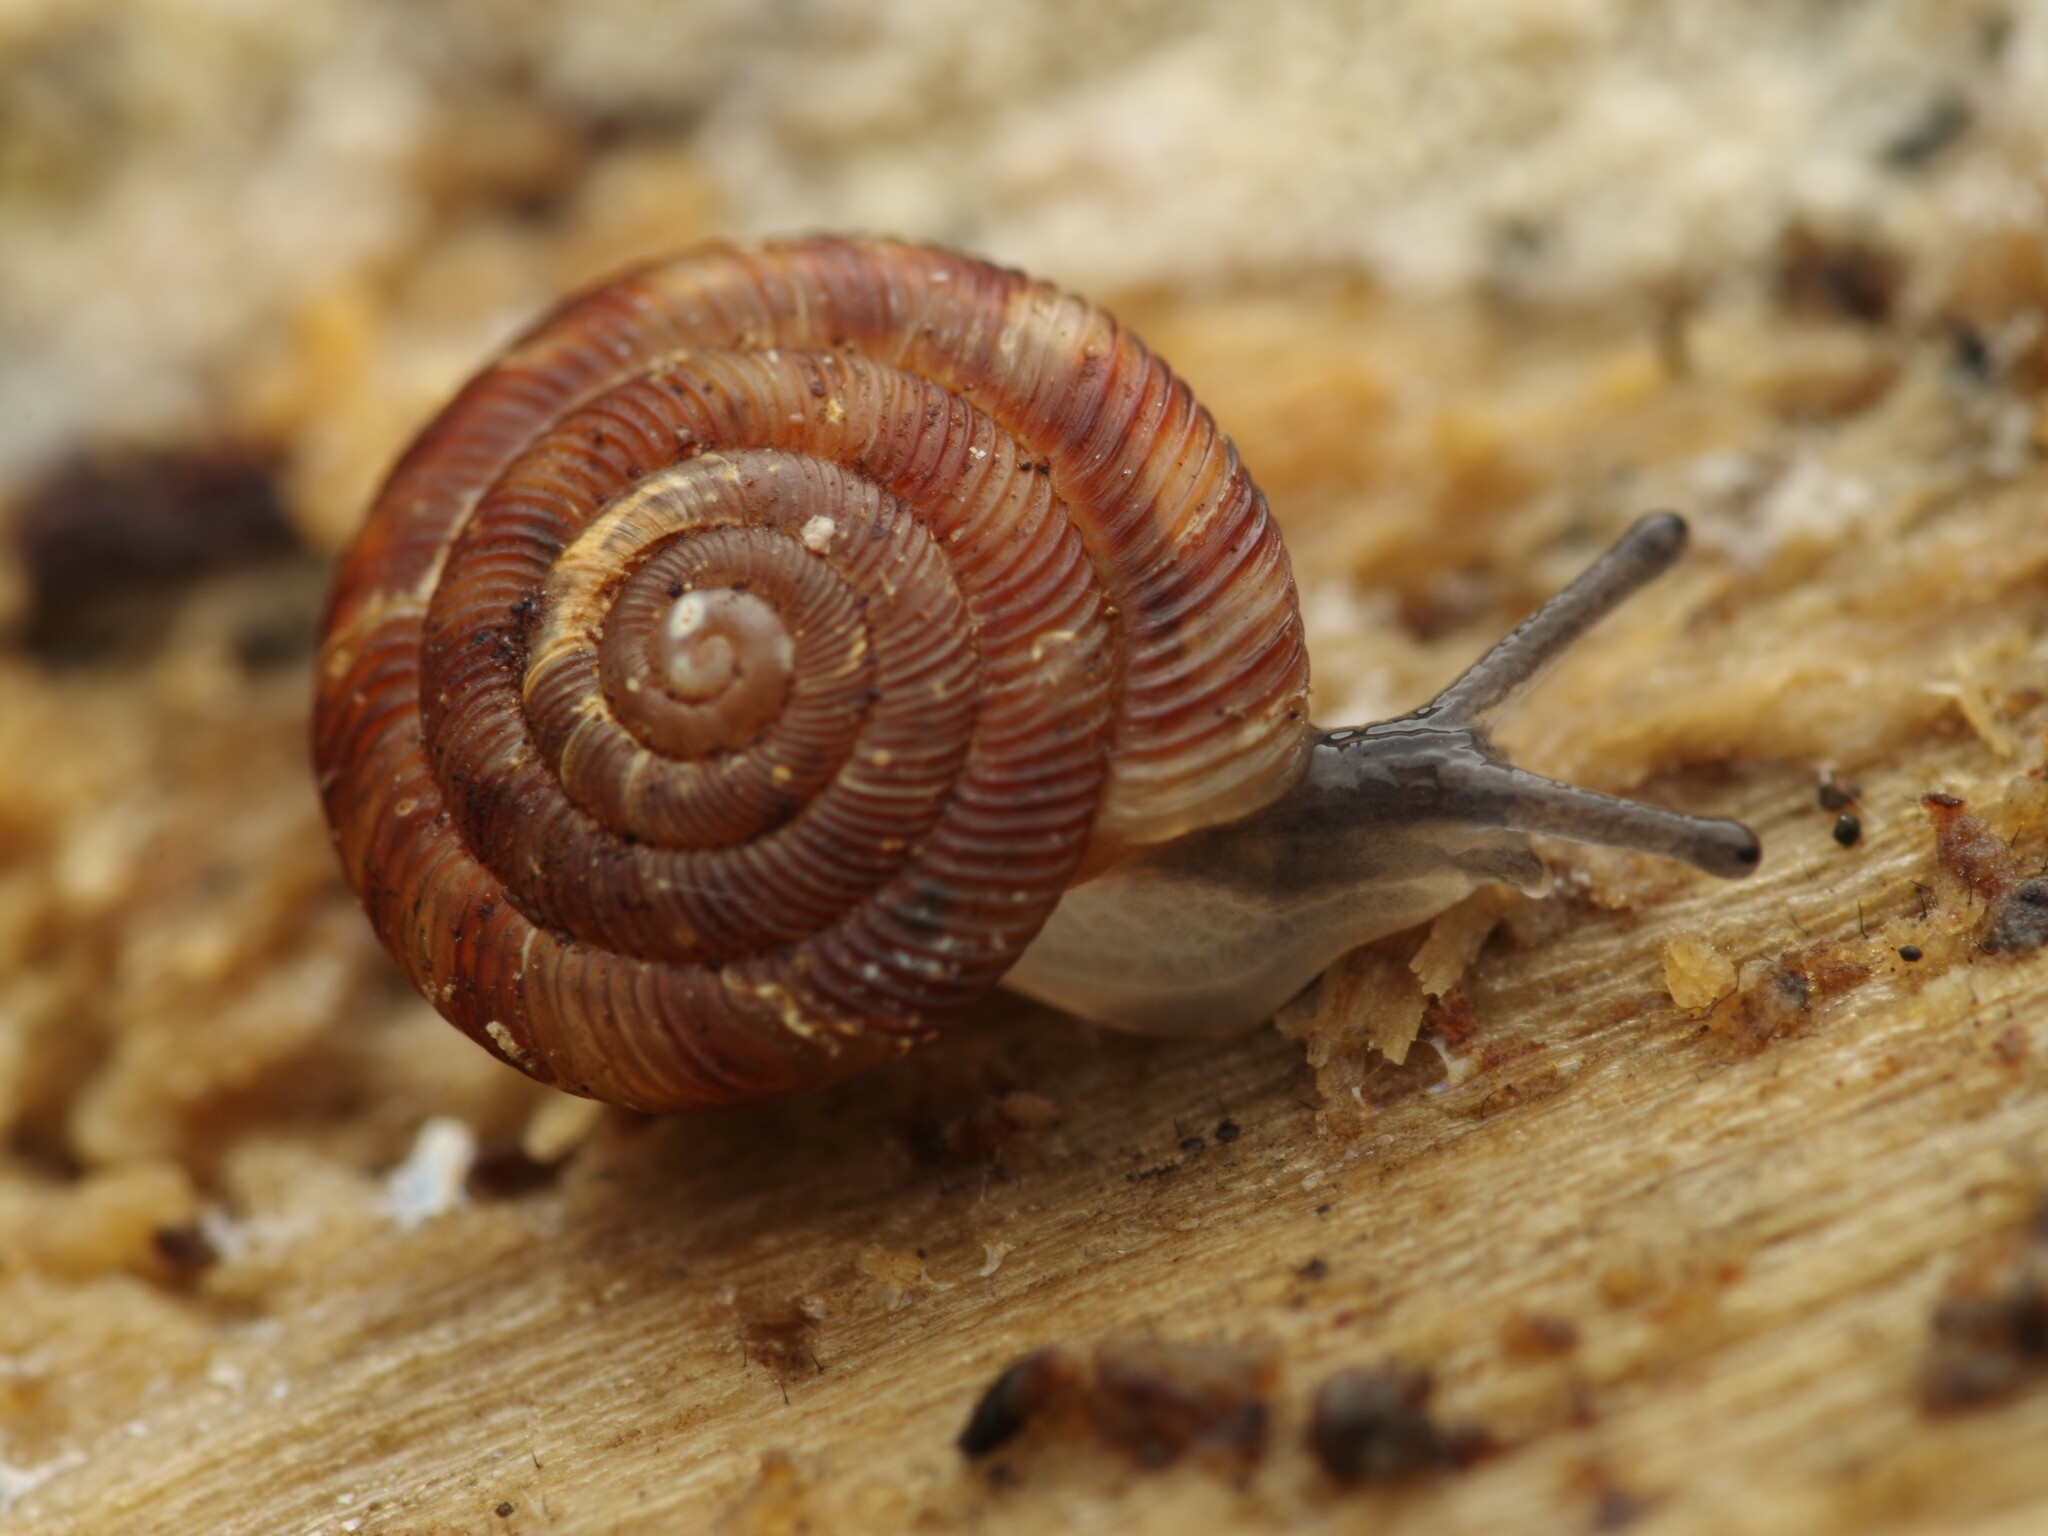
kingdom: Animalia
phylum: Mollusca
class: Gastropoda
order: Stylommatophora
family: Discidae
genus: Discus
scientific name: Discus rotundatus
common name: Rounded snail
